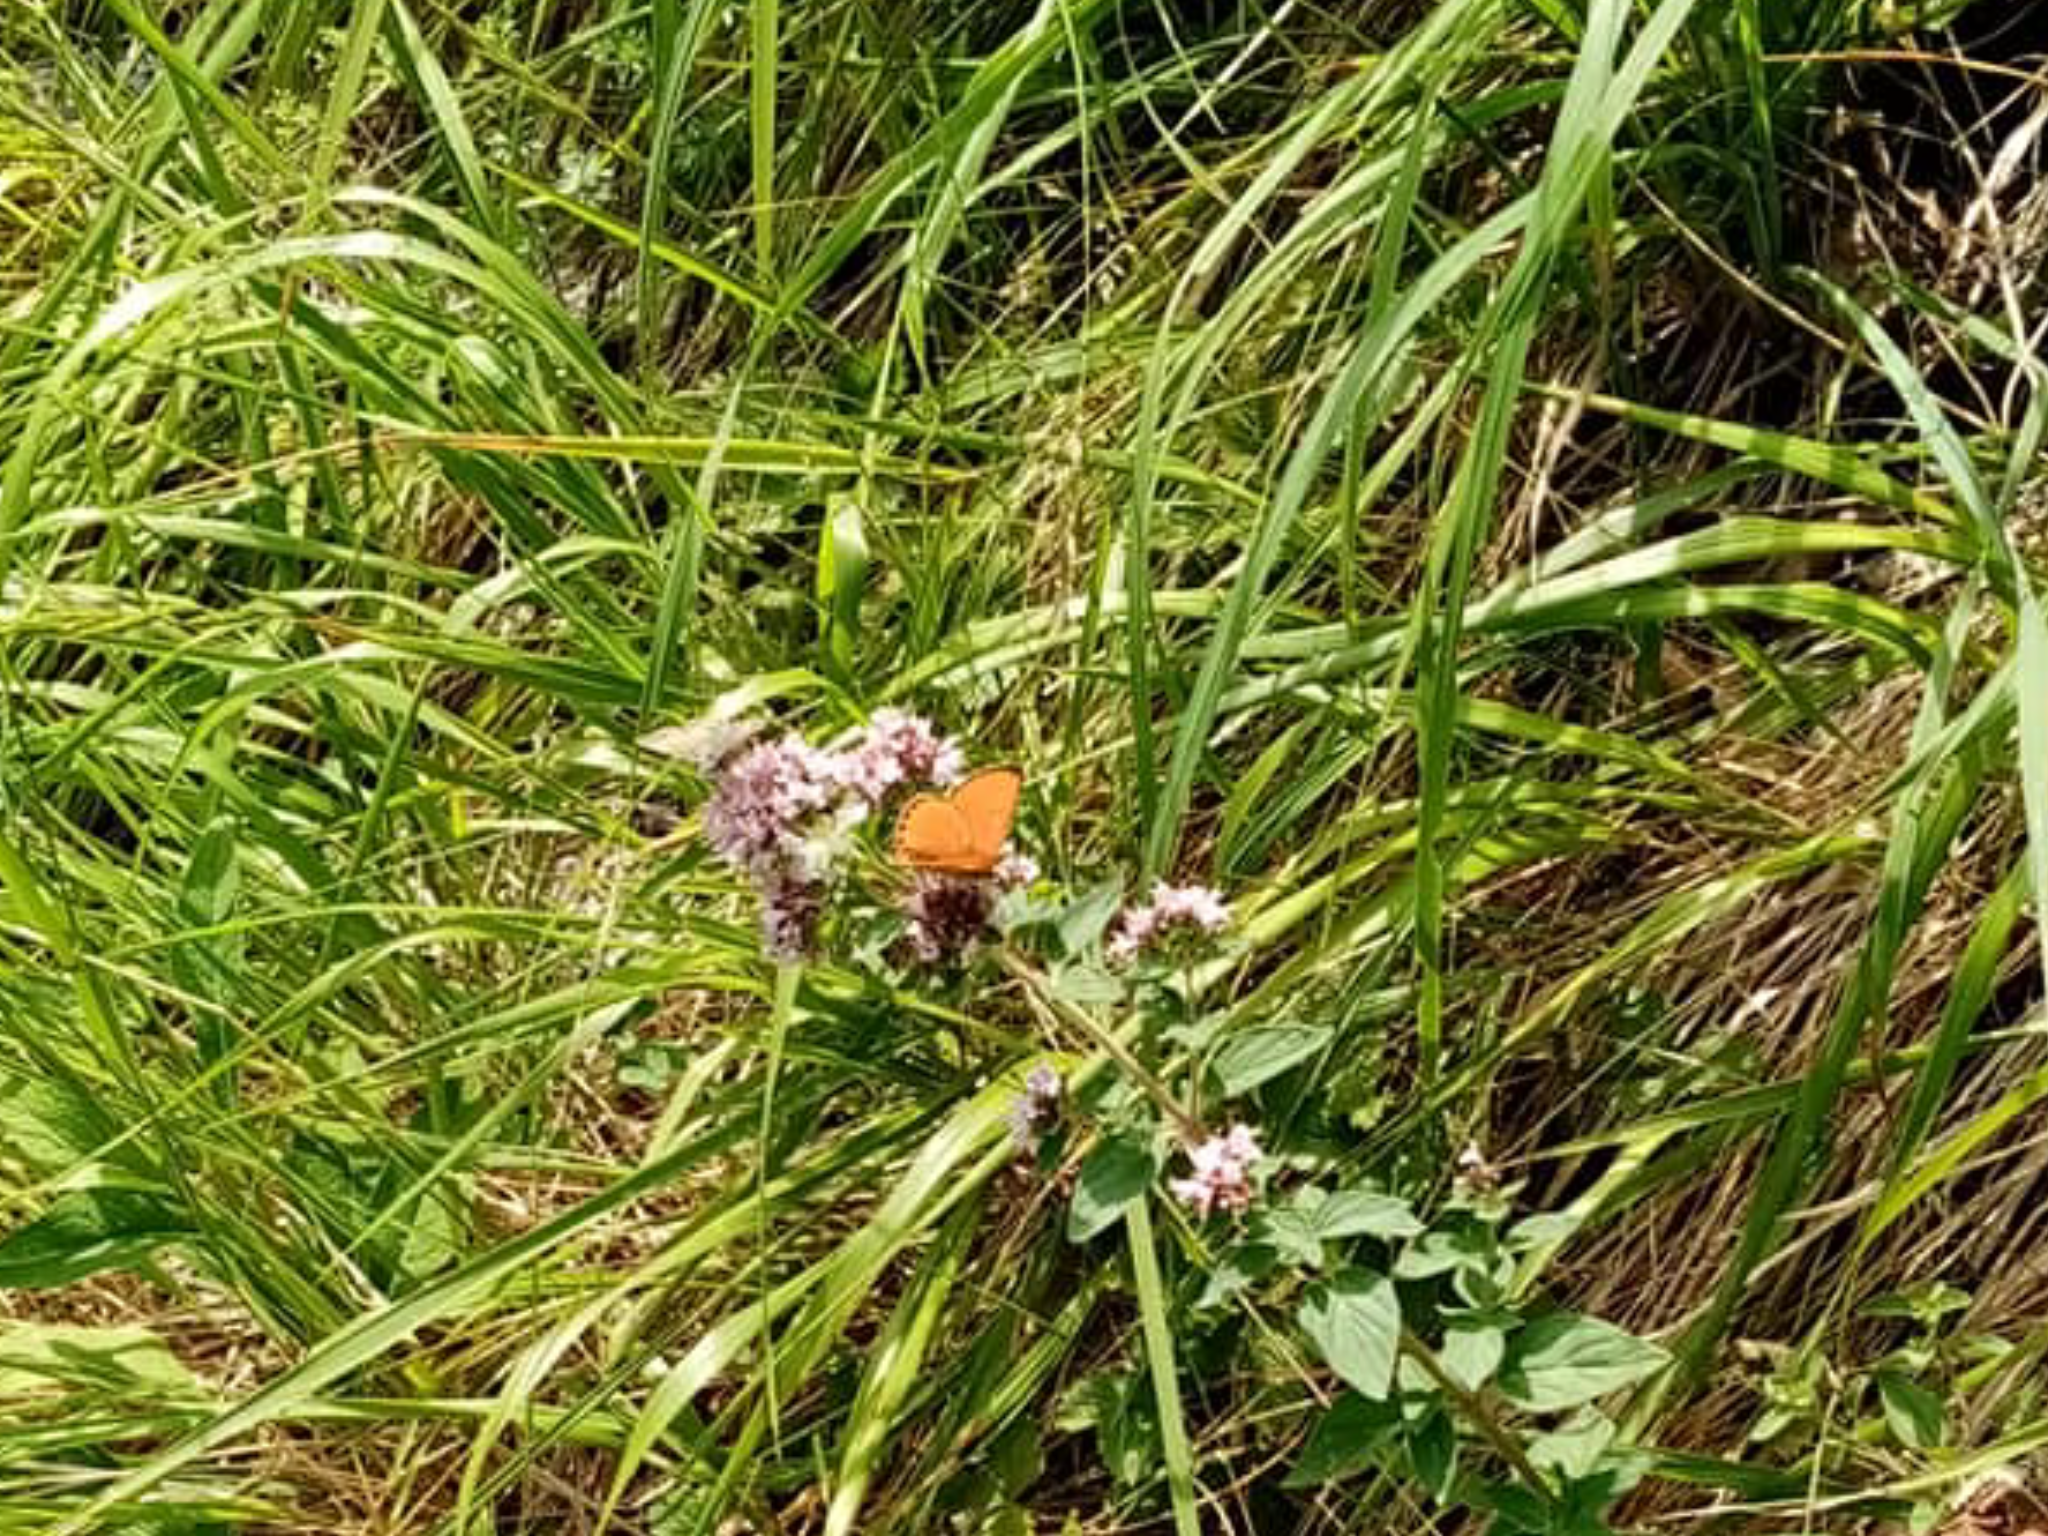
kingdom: Animalia
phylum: Arthropoda
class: Insecta
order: Lepidoptera
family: Lycaenidae
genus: Lycaena
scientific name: Lycaena virgaureae
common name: Scarce copper
